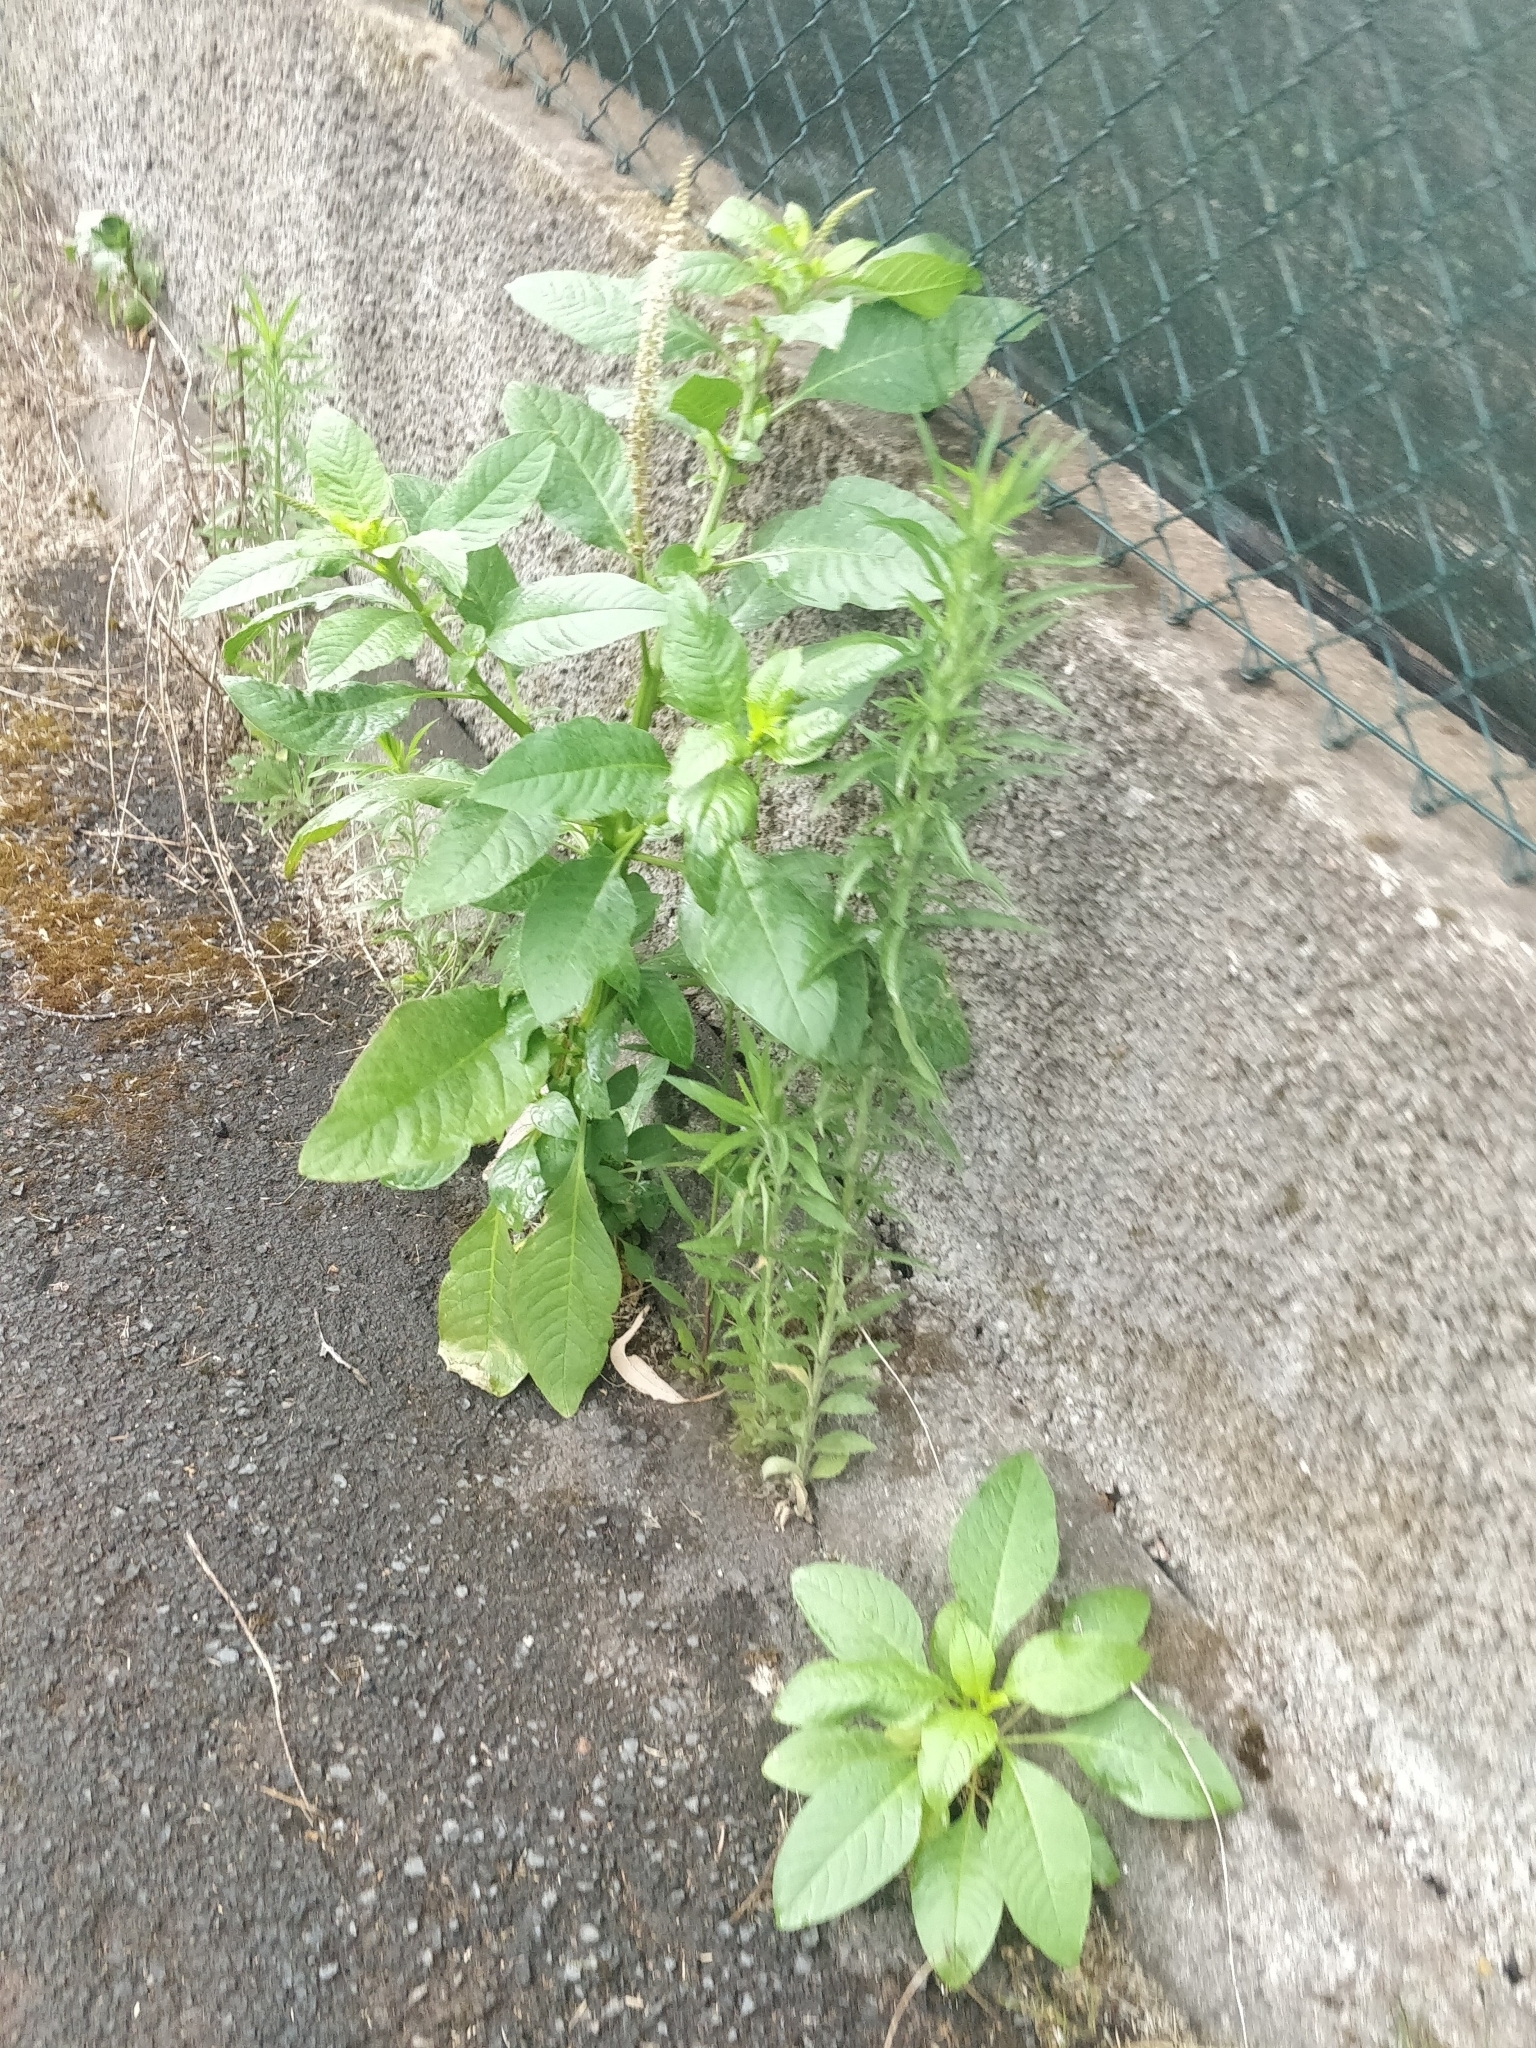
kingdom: Plantae
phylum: Tracheophyta
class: Magnoliopsida
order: Caryophyllales
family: Phytolaccaceae
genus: Phytolacca
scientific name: Phytolacca heterotepala
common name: Mexican pokeweed
